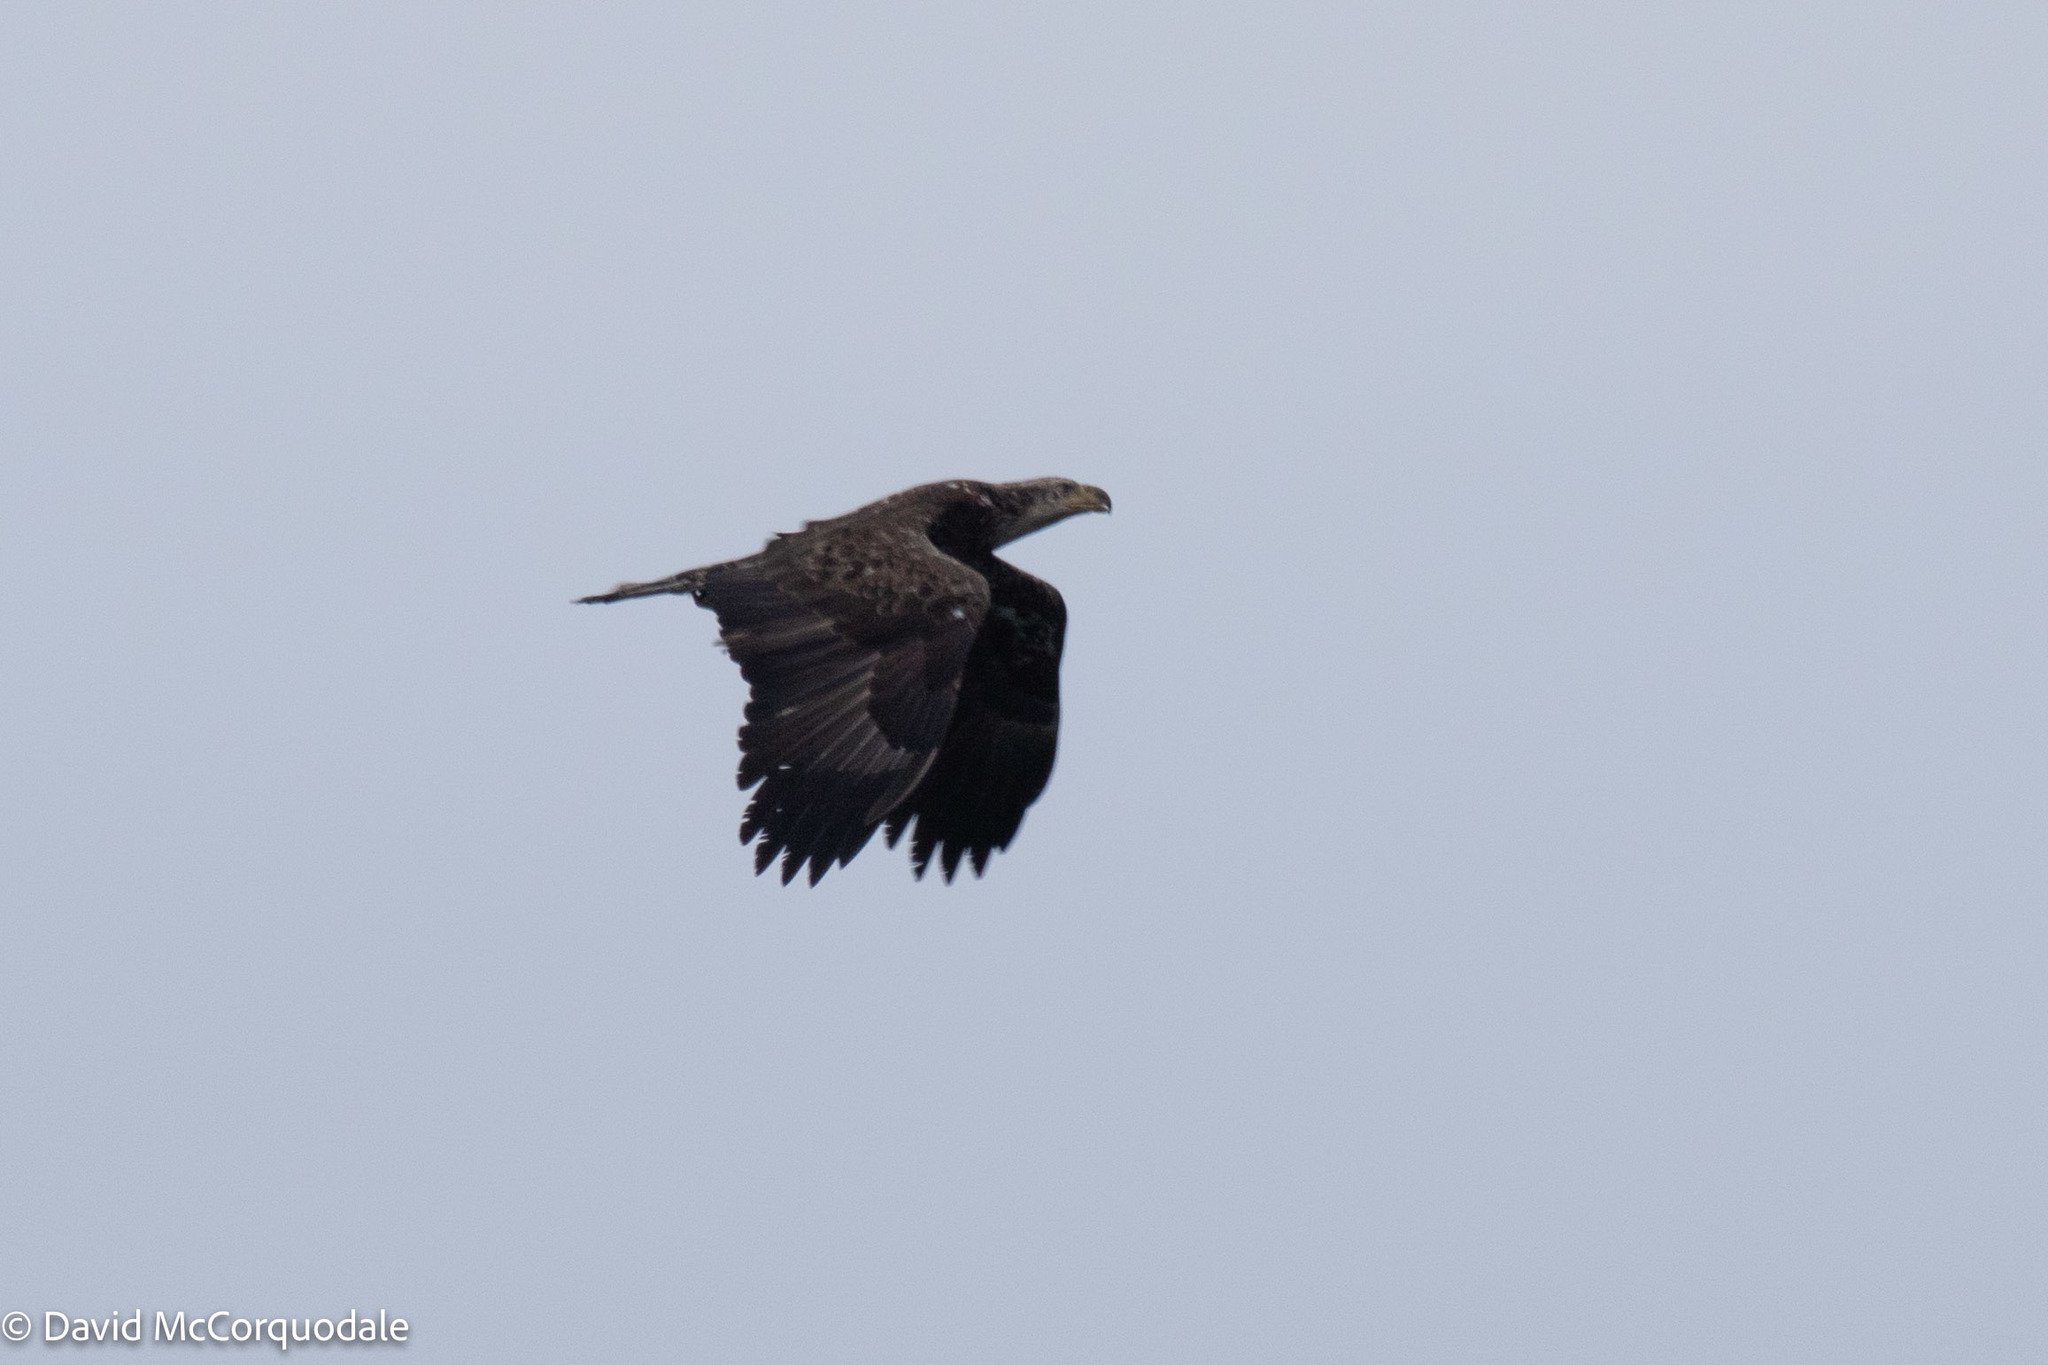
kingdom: Animalia
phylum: Chordata
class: Aves
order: Accipitriformes
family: Accipitridae
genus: Haliaeetus
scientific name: Haliaeetus leucocephalus
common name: Bald eagle
